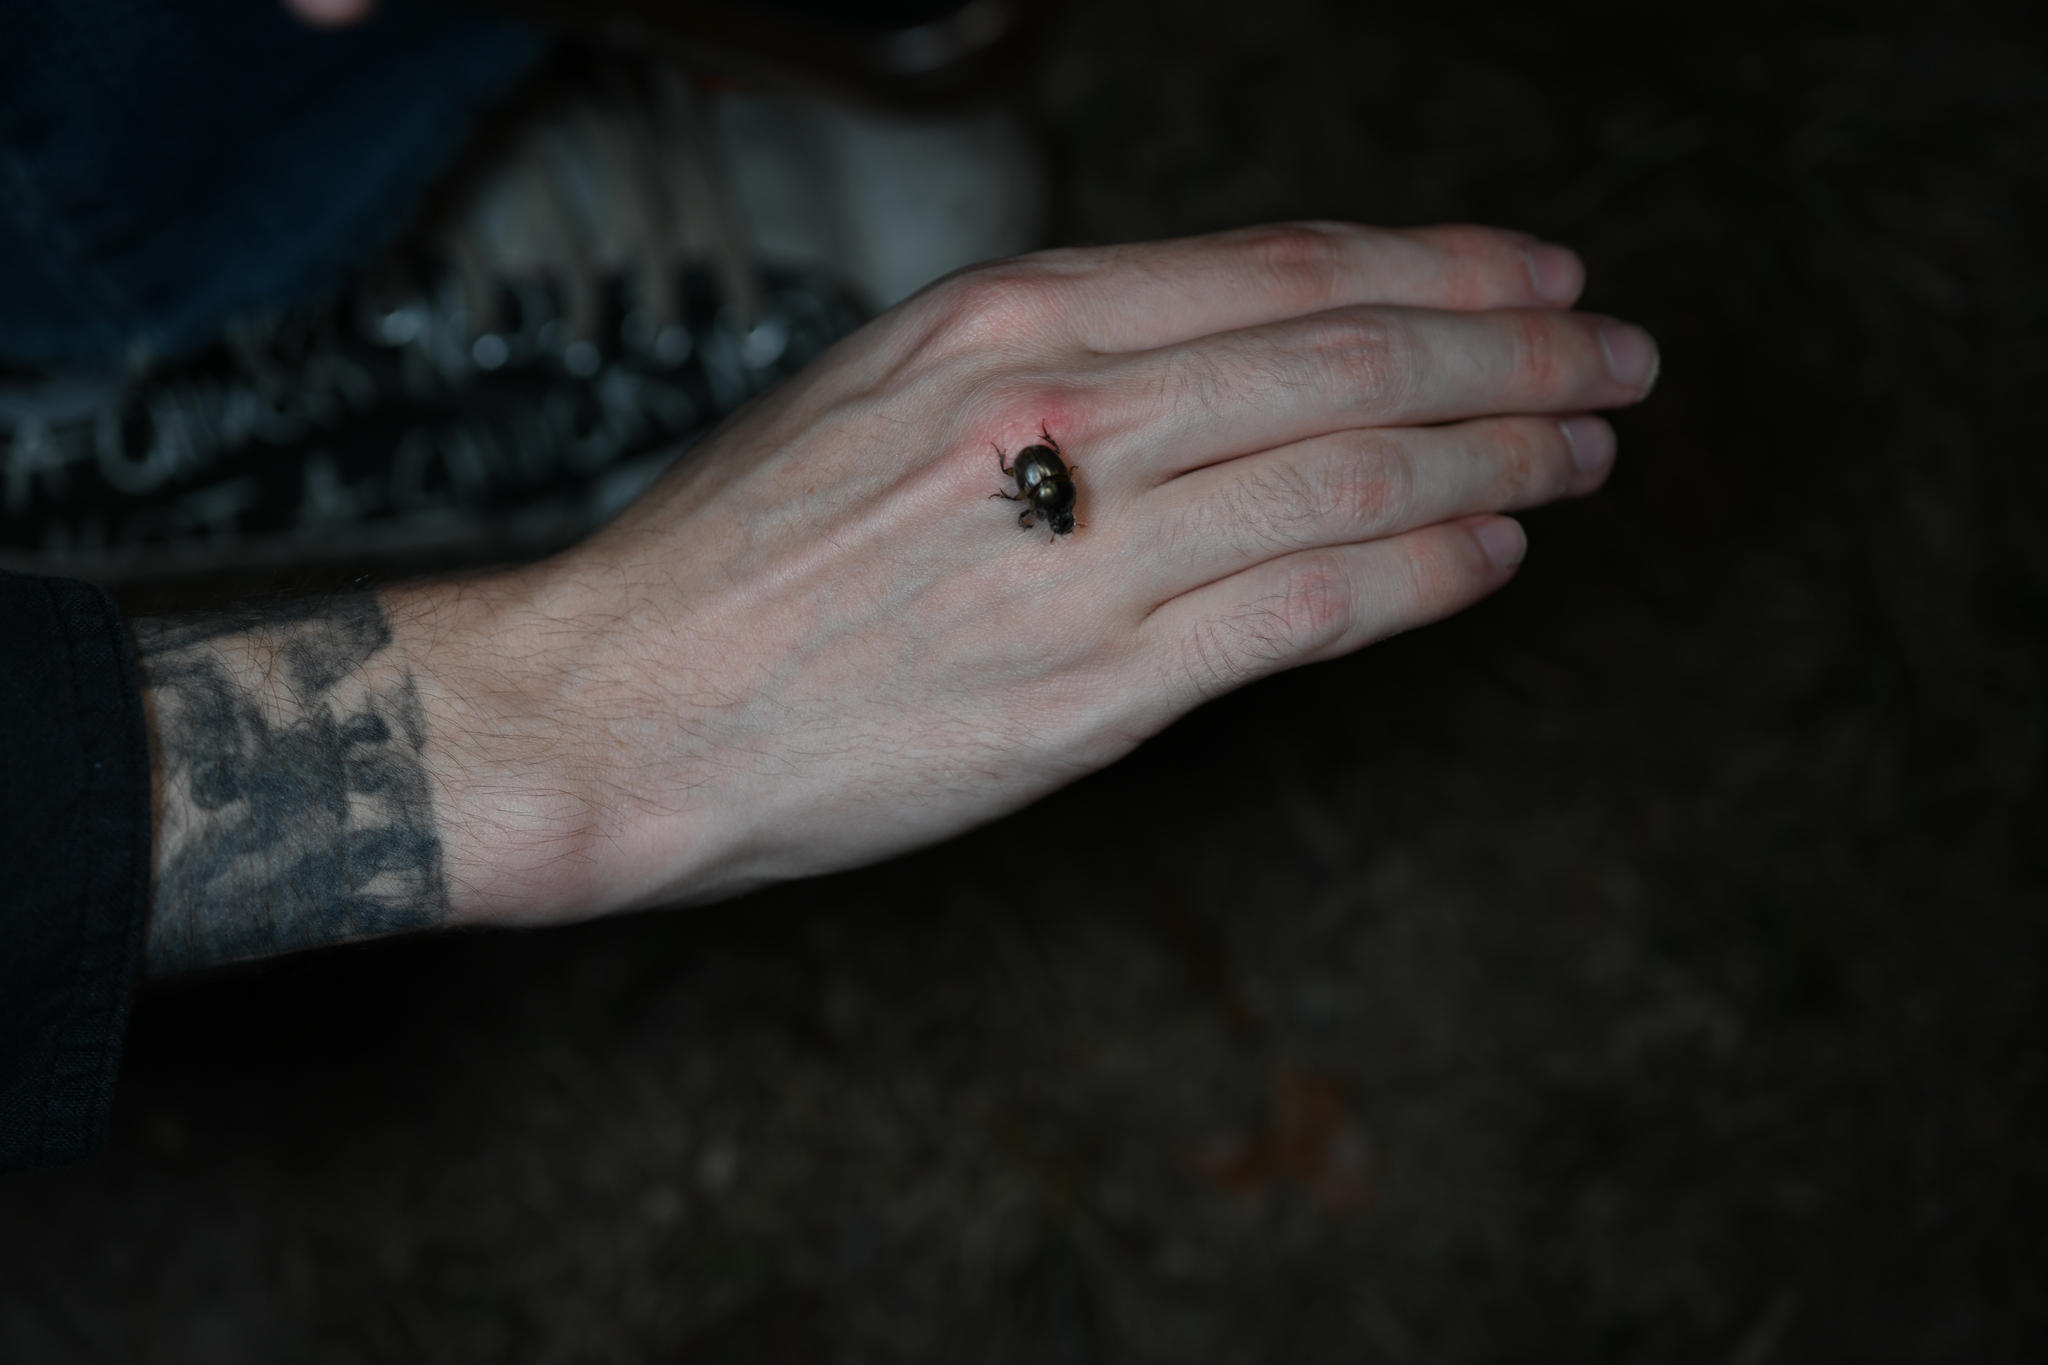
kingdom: Animalia
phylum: Arthropoda
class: Insecta
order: Coleoptera
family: Scarabaeidae
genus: Digitonthophagus
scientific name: Digitonthophagus gazella
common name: Brown dung beetle
